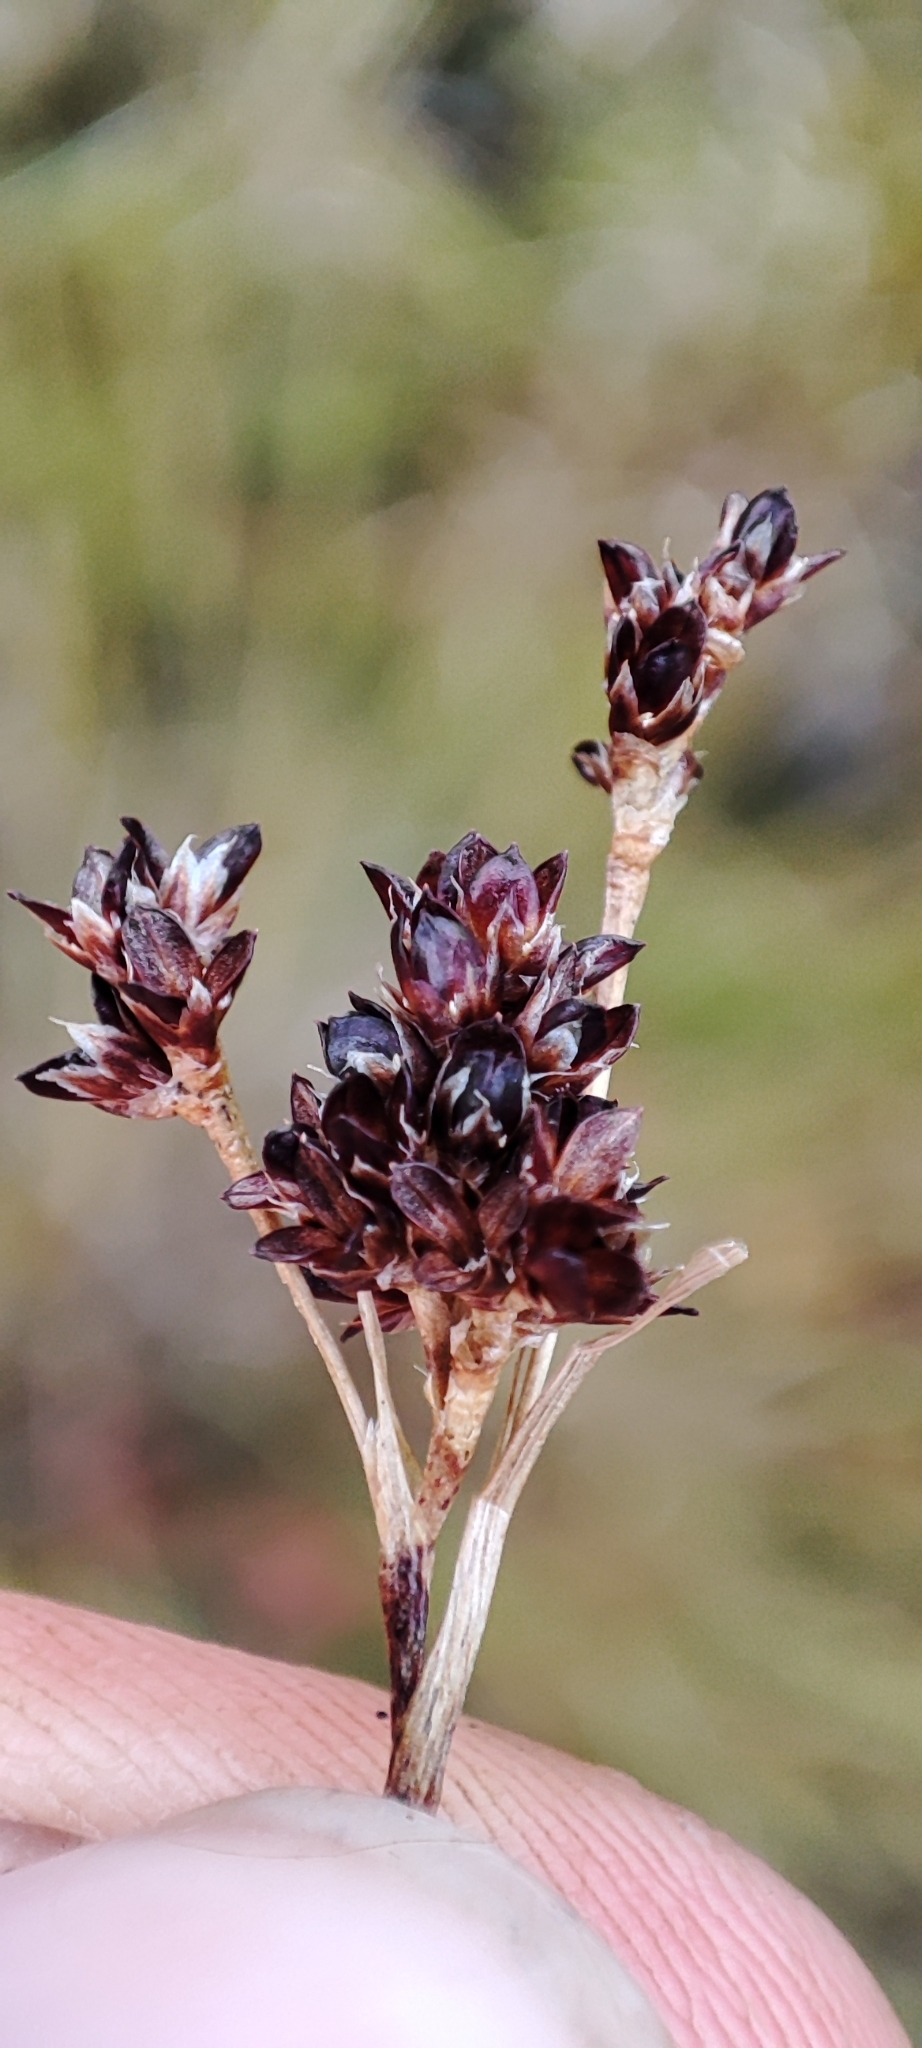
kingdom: Plantae
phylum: Tracheophyta
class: Liliopsida
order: Poales
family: Juncaceae
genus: Luzula
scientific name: Luzula multiflora
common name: Heath wood-rush
